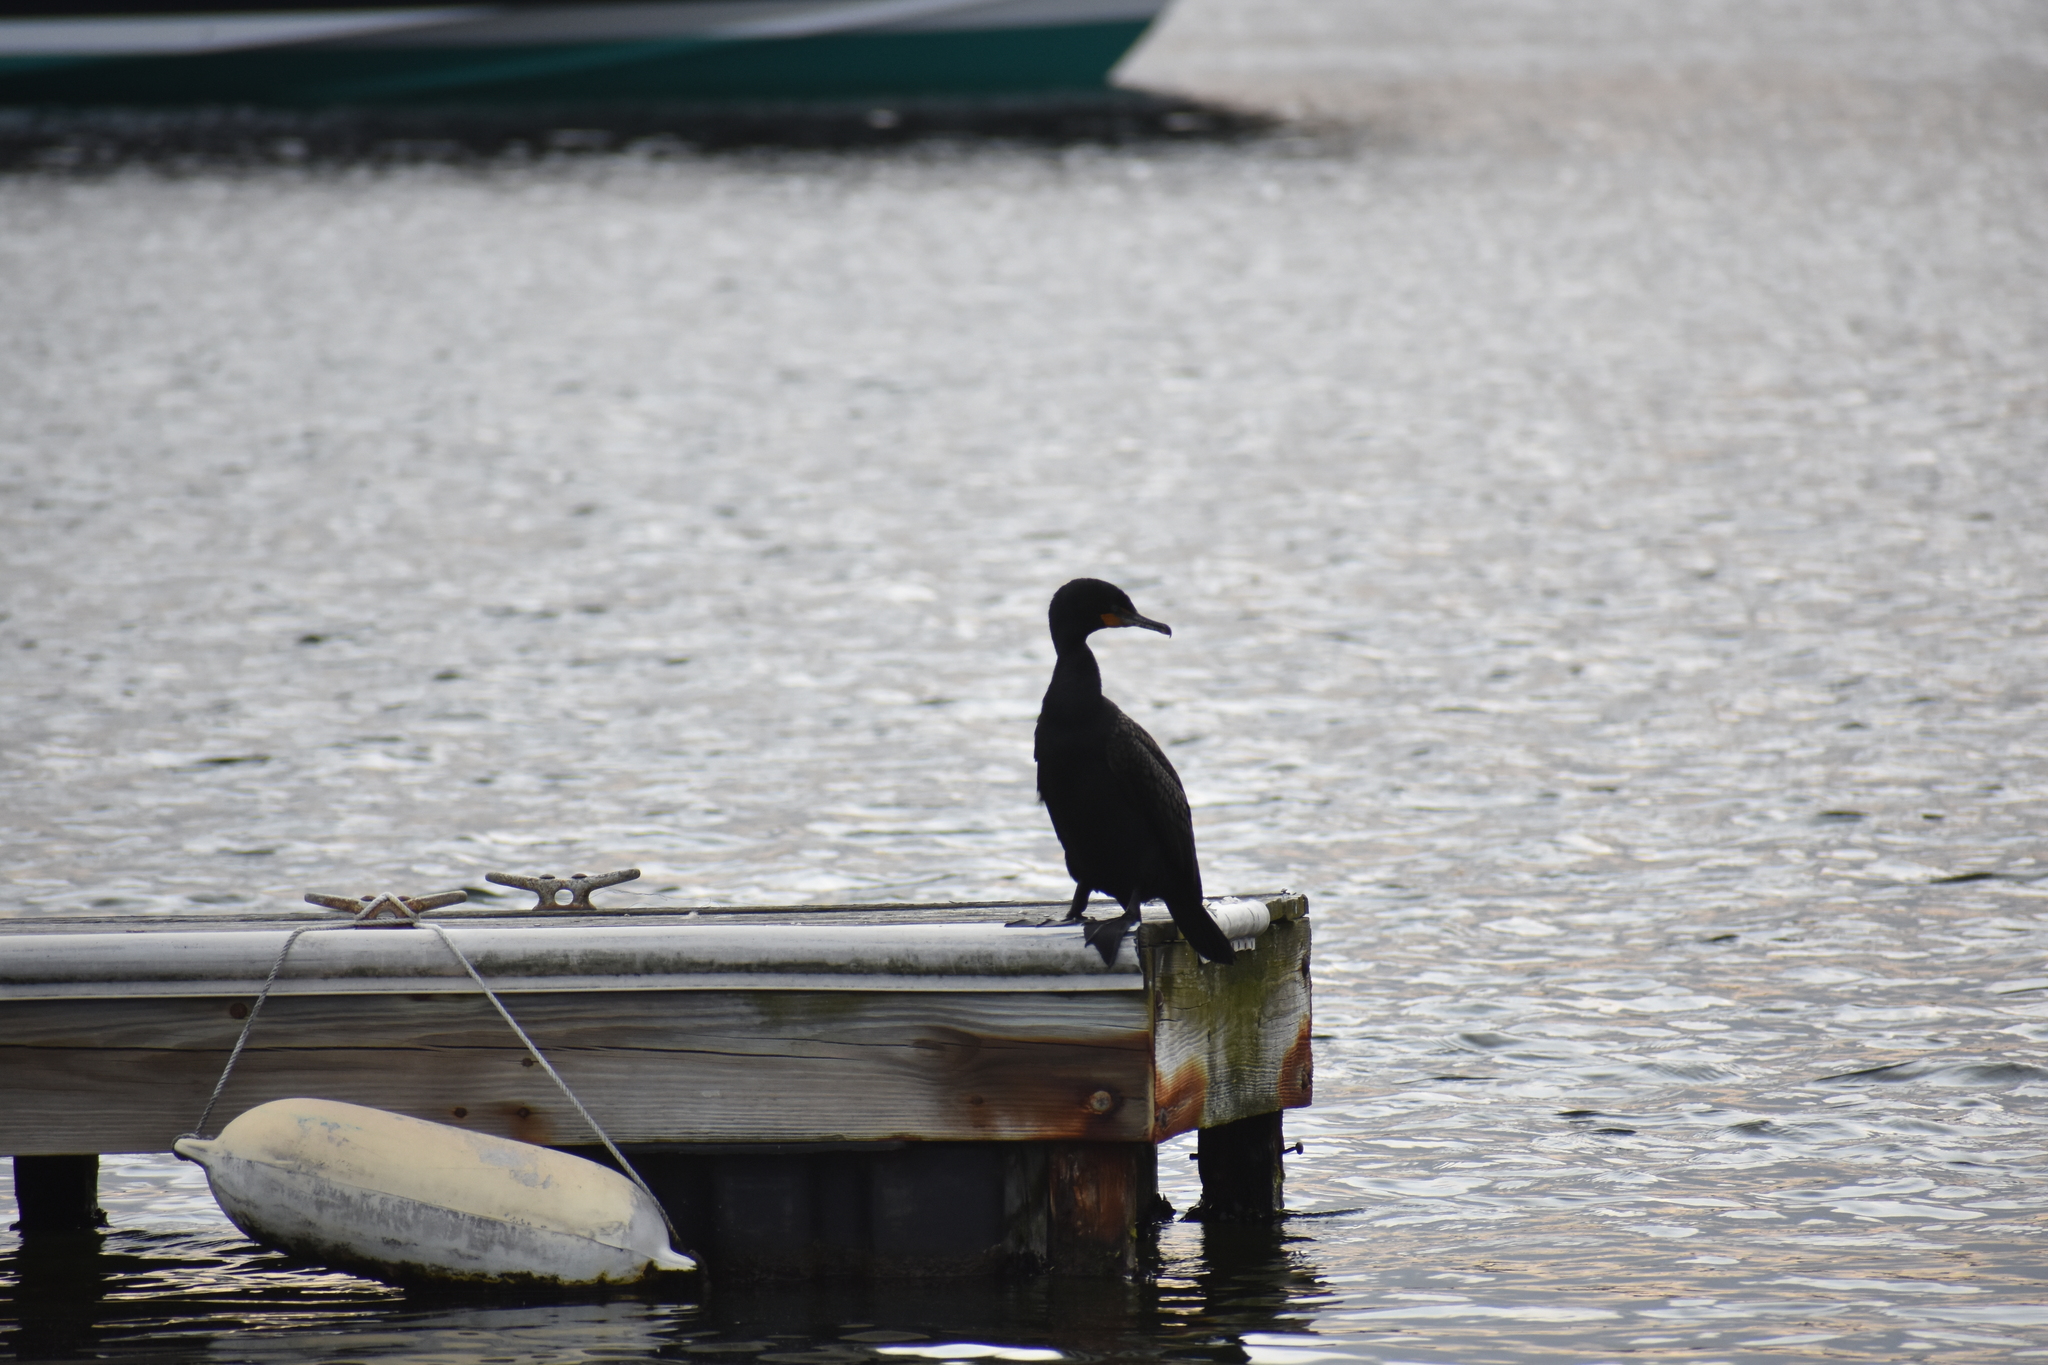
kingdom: Animalia
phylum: Chordata
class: Aves
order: Suliformes
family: Phalacrocoracidae
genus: Phalacrocorax
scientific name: Phalacrocorax auritus
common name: Double-crested cormorant
